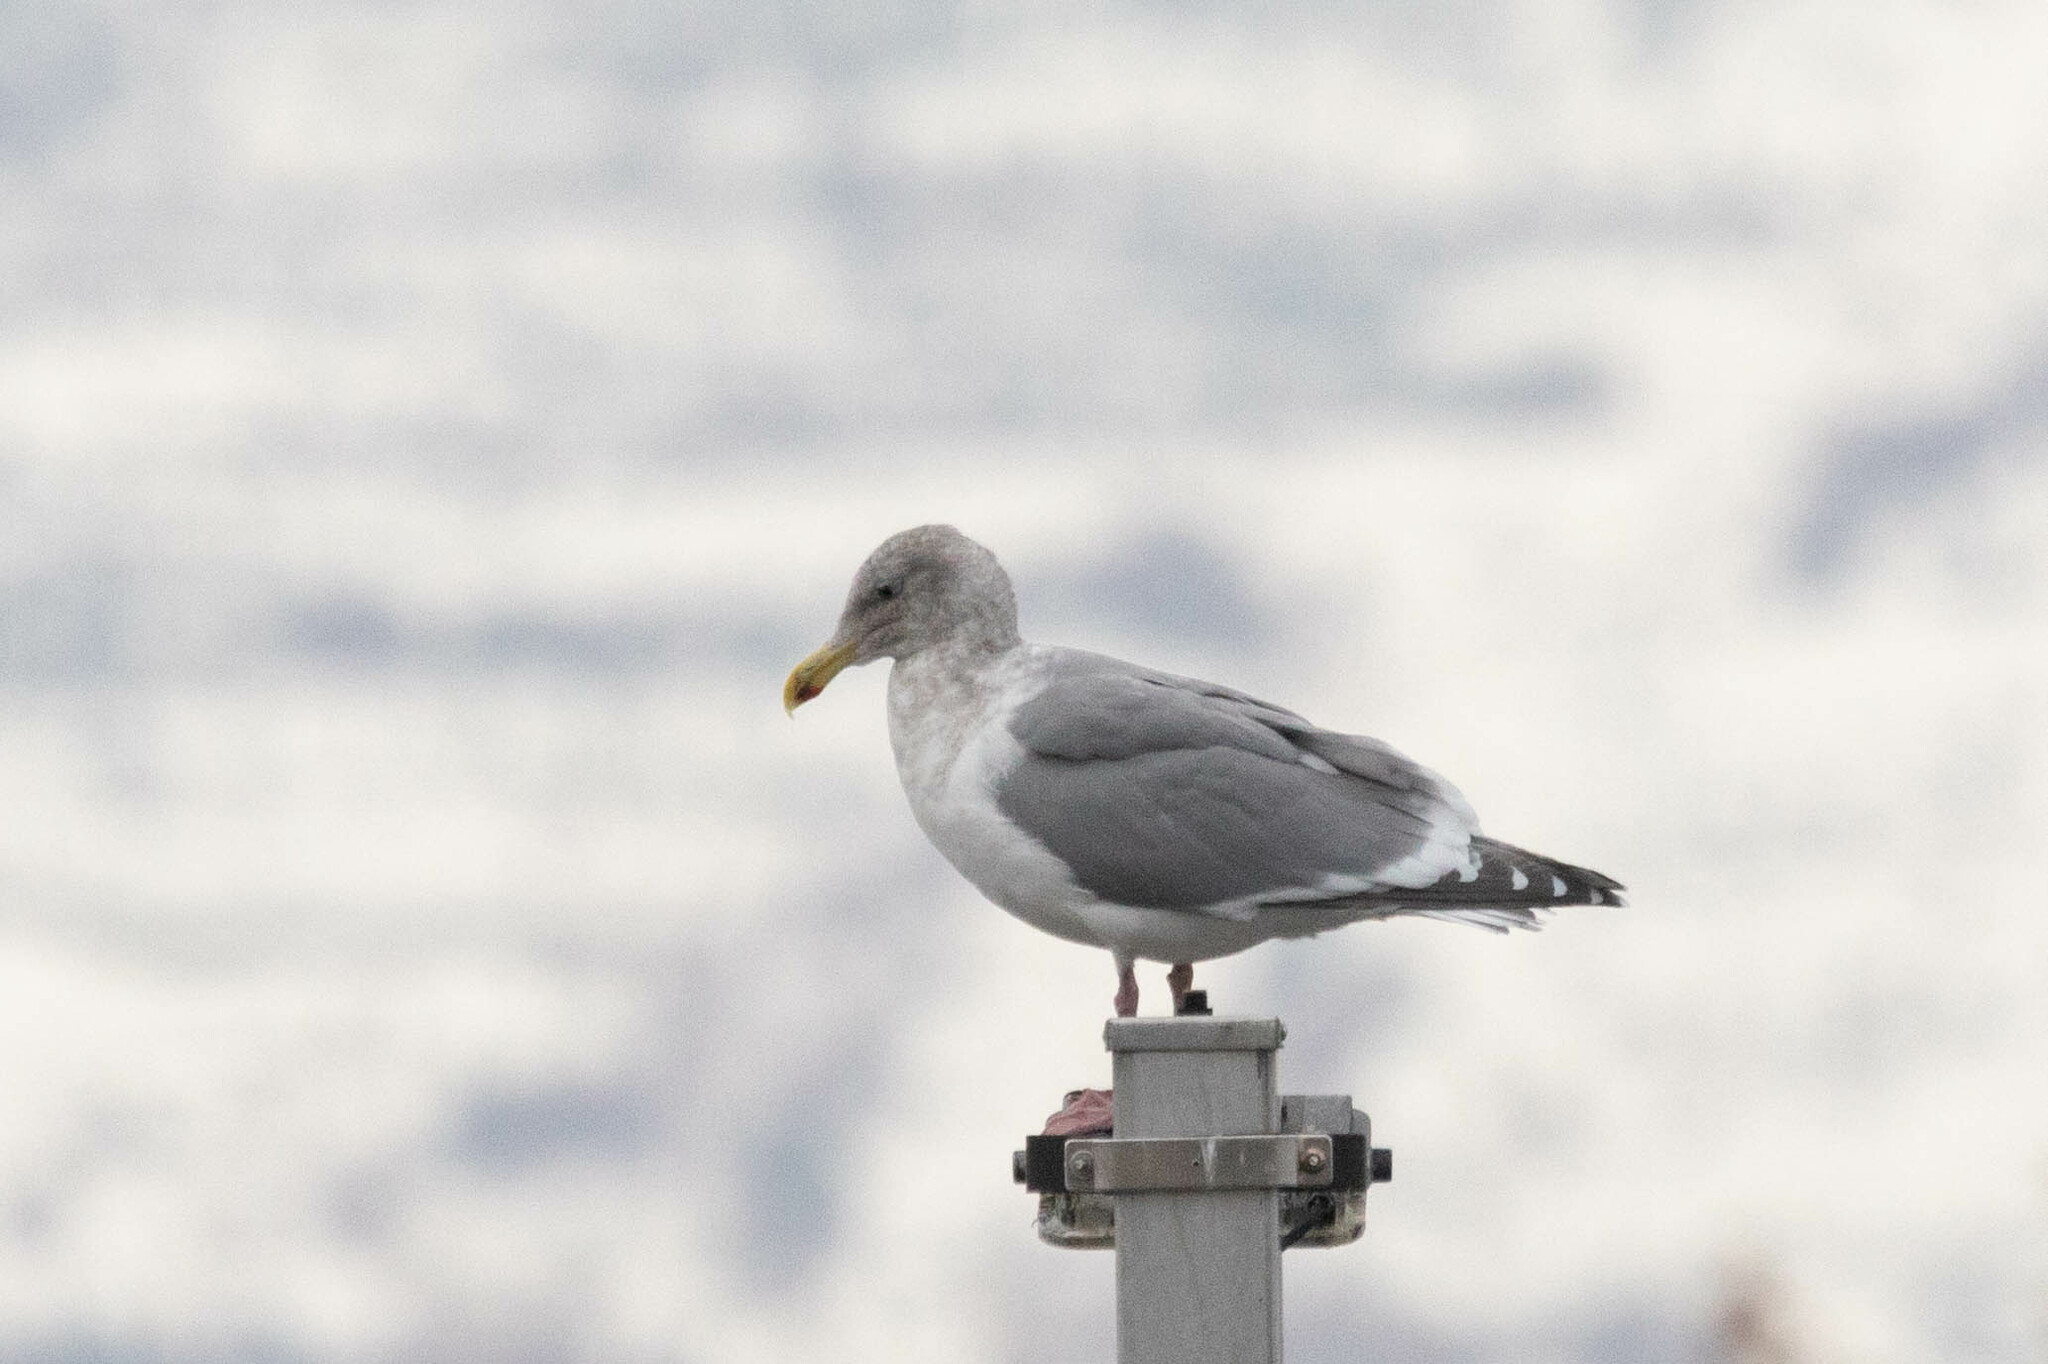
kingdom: Animalia
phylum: Chordata
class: Aves
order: Charadriiformes
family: Laridae
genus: Larus
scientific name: Larus glaucescens
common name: Glaucous-winged gull
